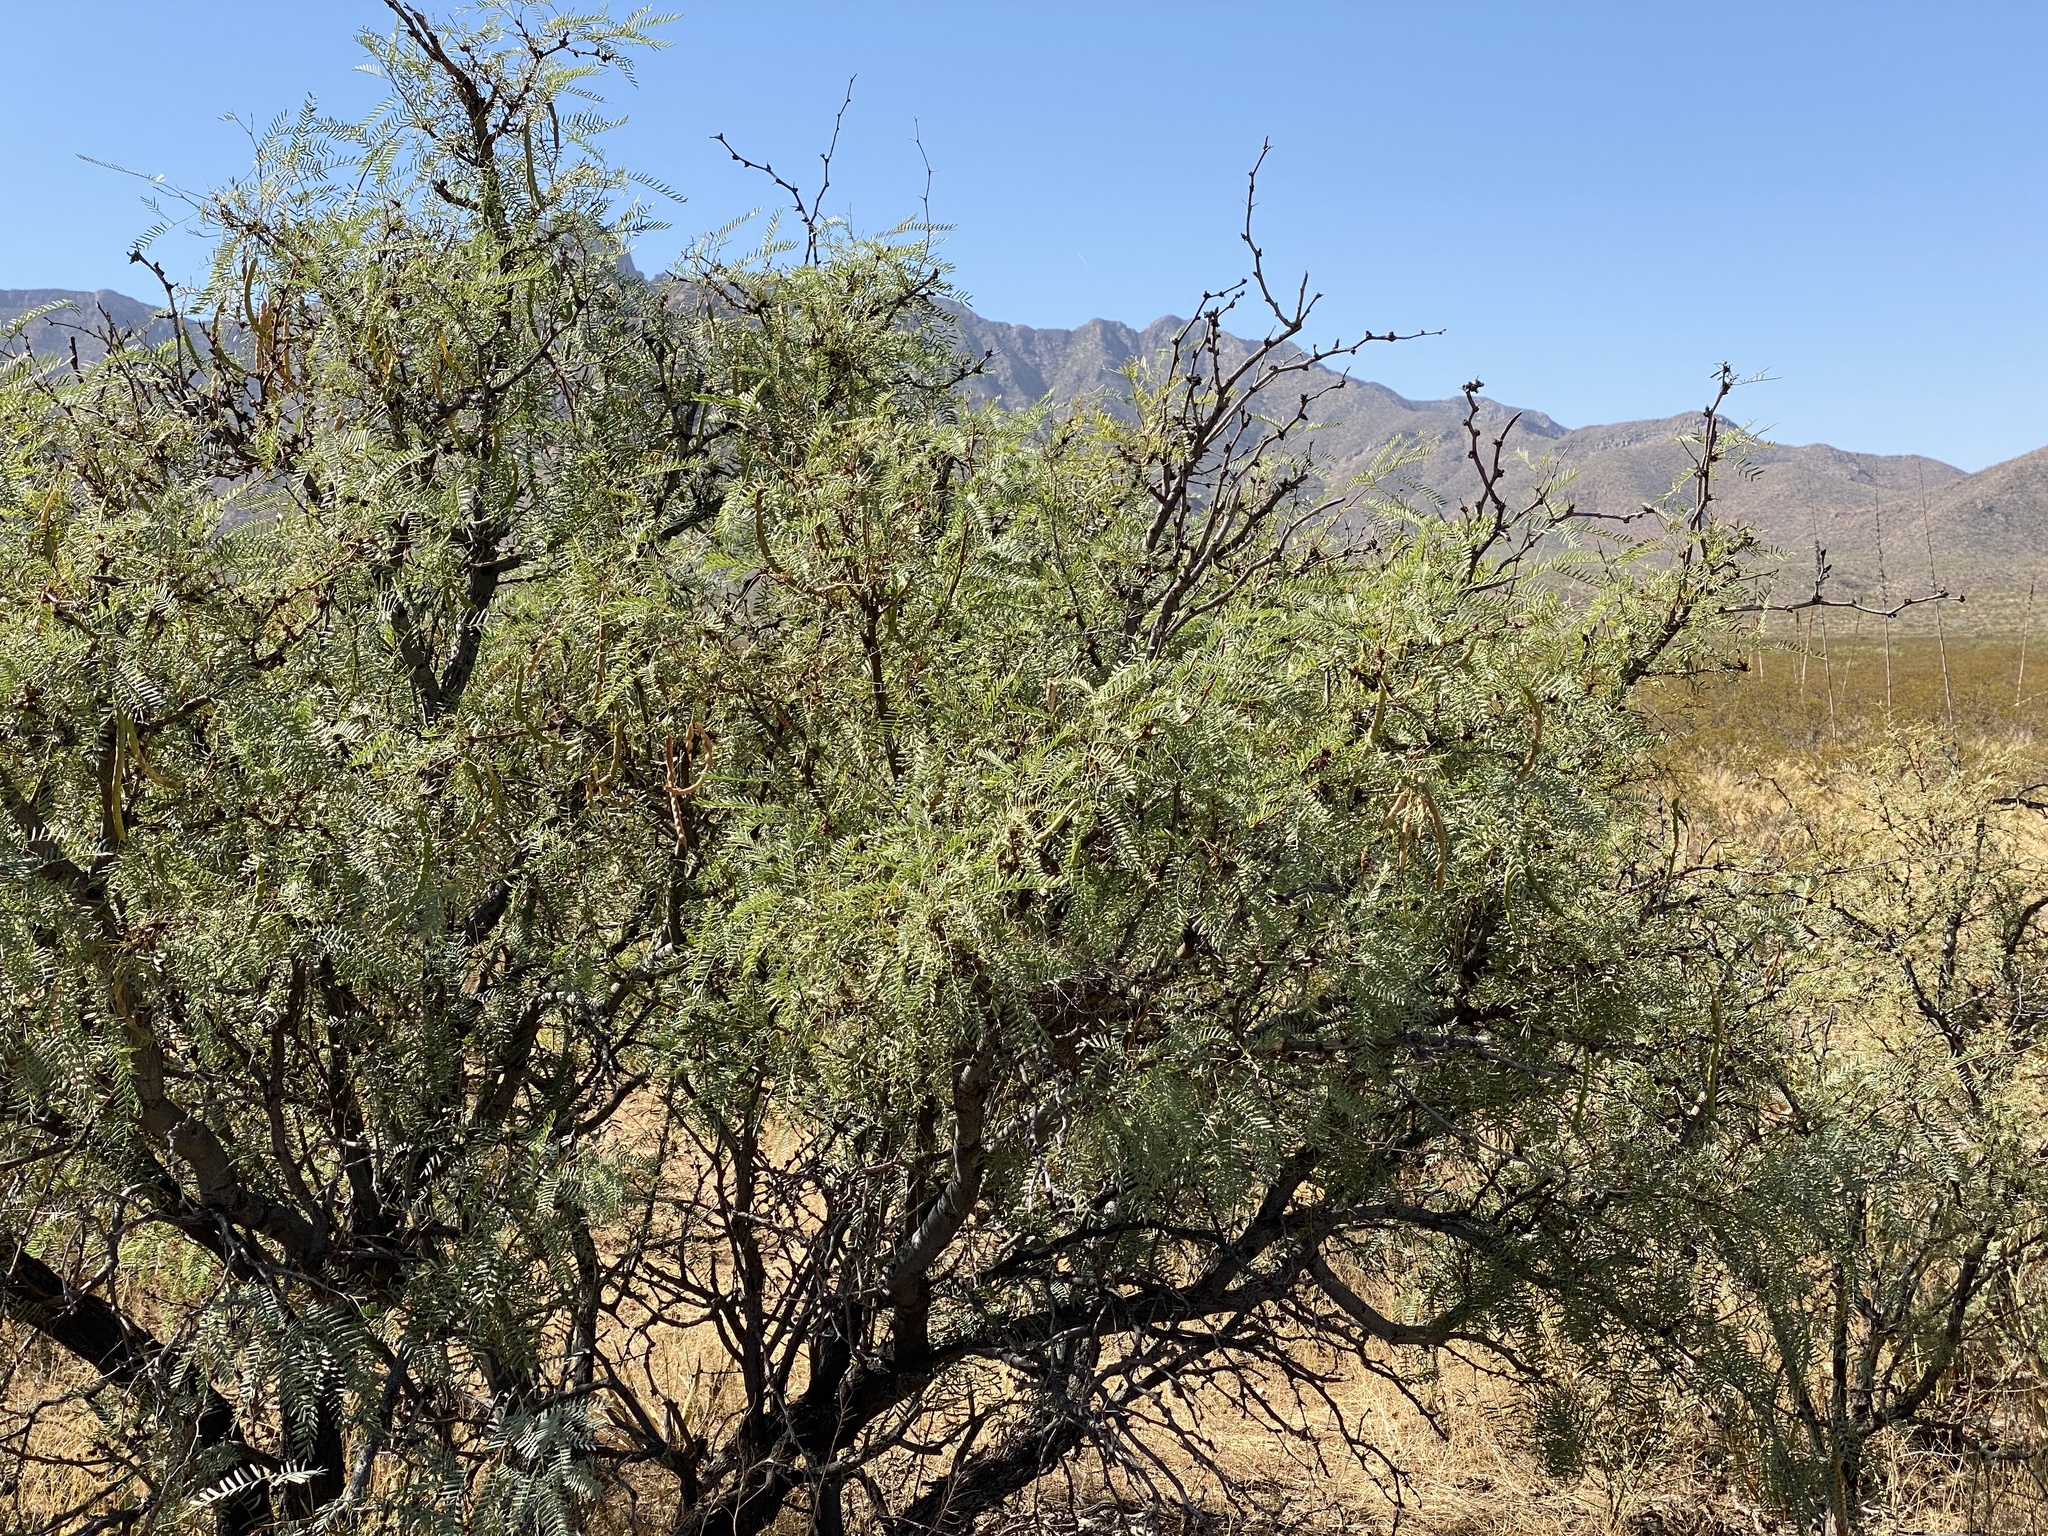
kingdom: Plantae
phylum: Tracheophyta
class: Magnoliopsida
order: Fabales
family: Fabaceae
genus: Prosopis
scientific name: Prosopis glandulosa
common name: Honey mesquite
